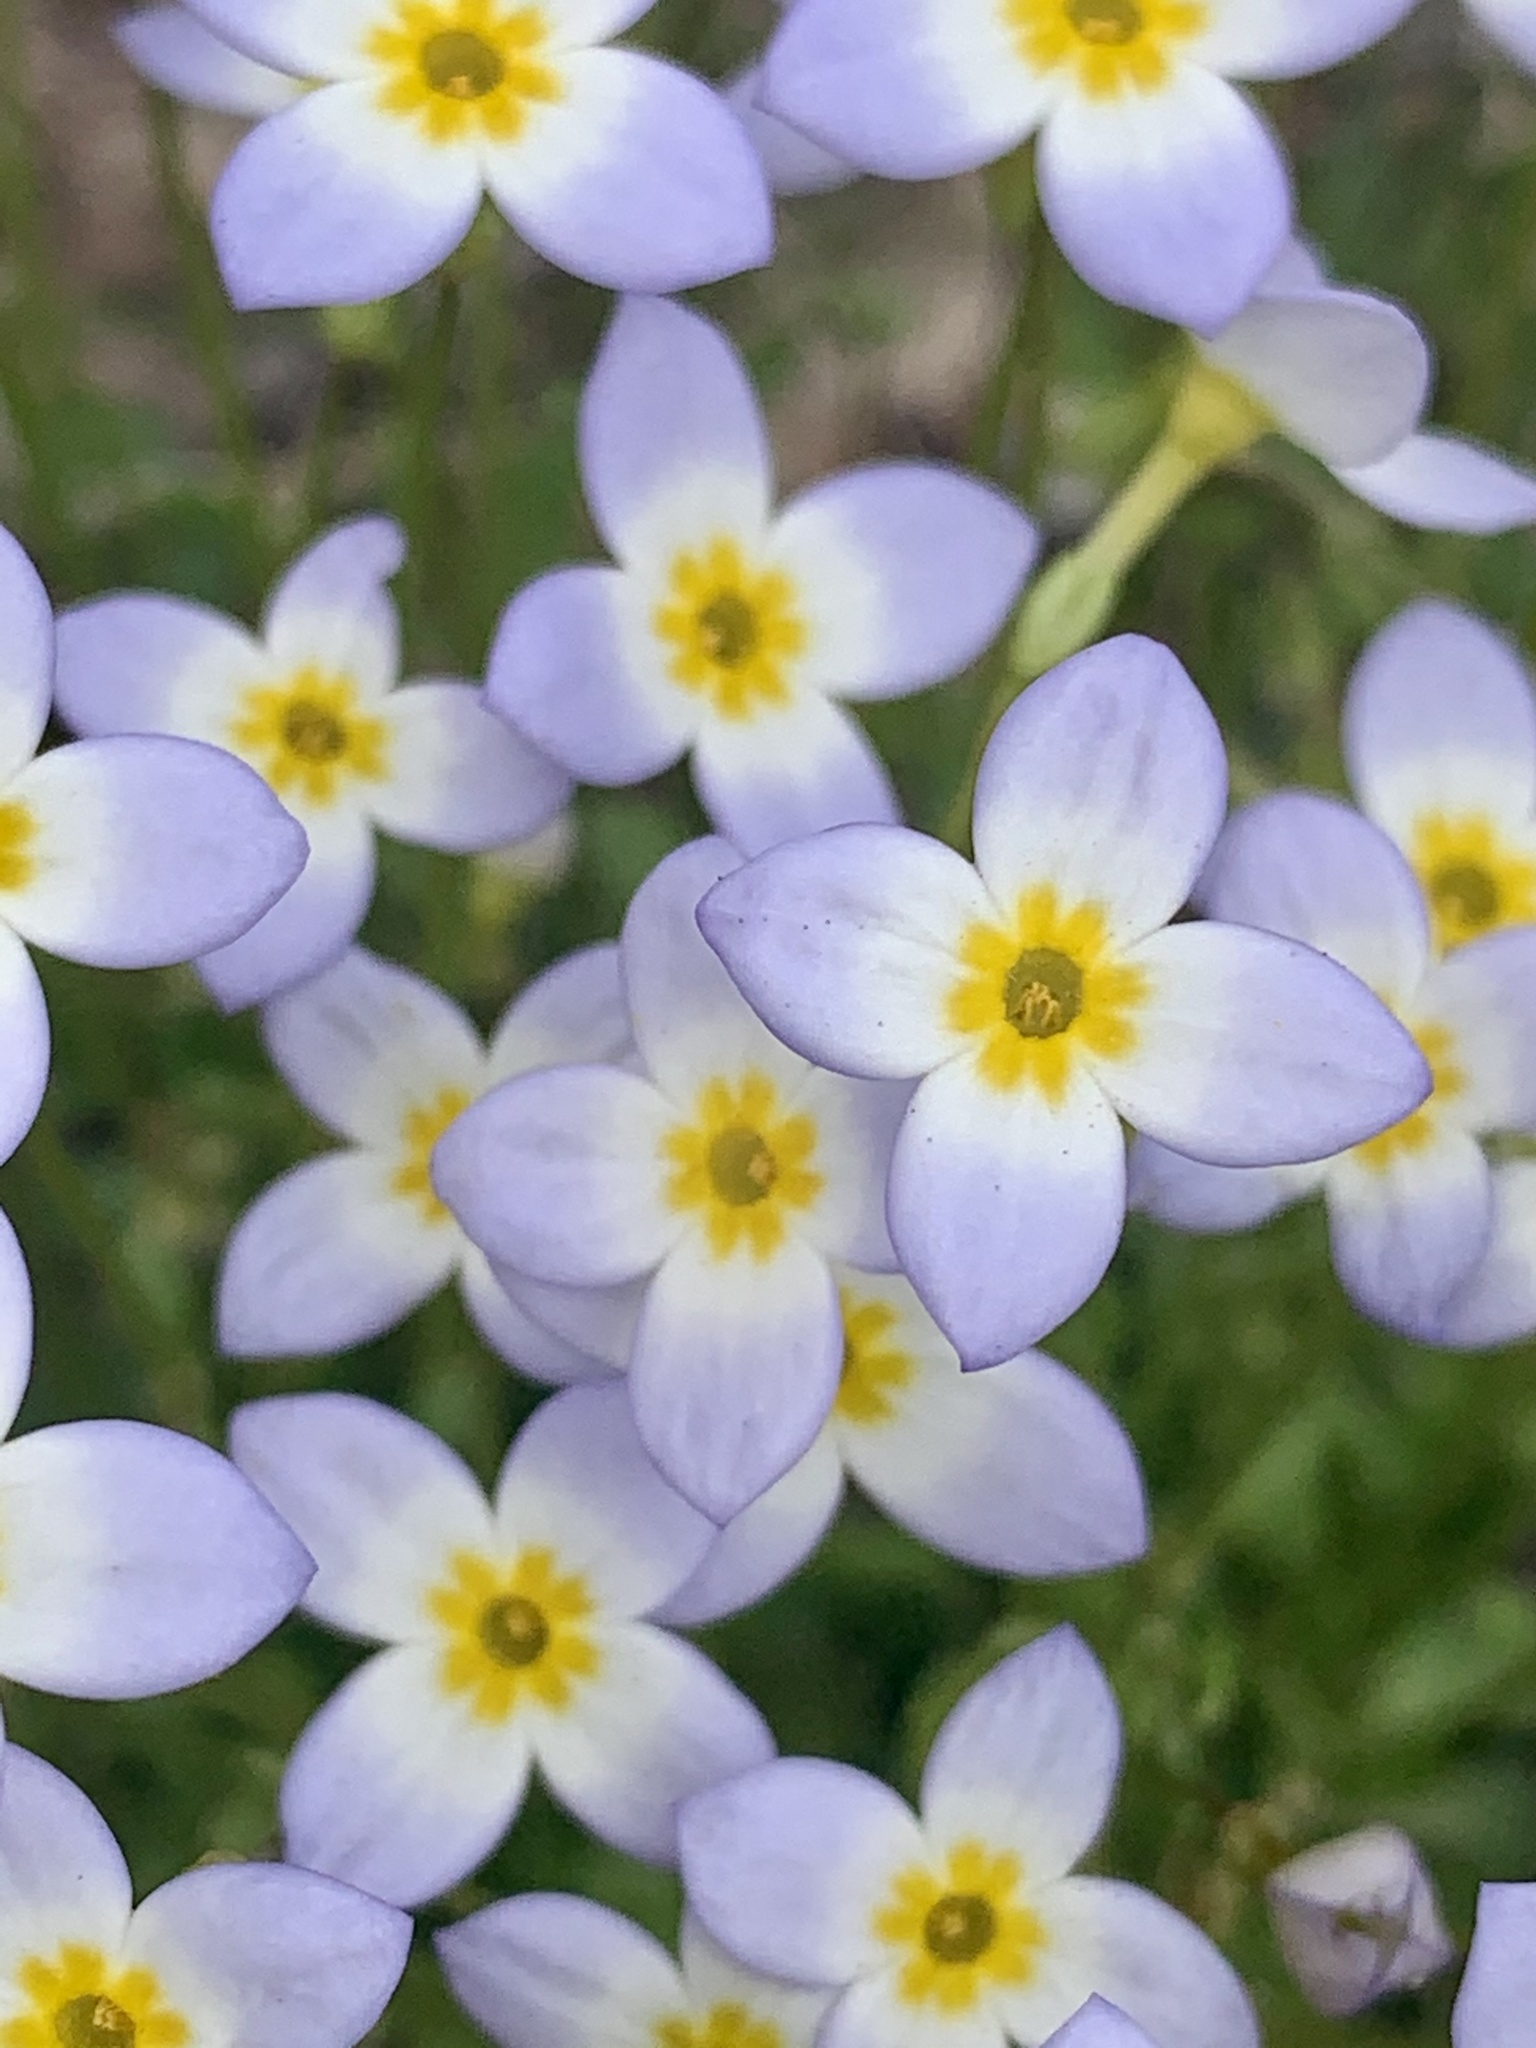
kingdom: Plantae
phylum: Tracheophyta
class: Magnoliopsida
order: Gentianales
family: Rubiaceae
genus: Houstonia
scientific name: Houstonia caerulea
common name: Bluets
